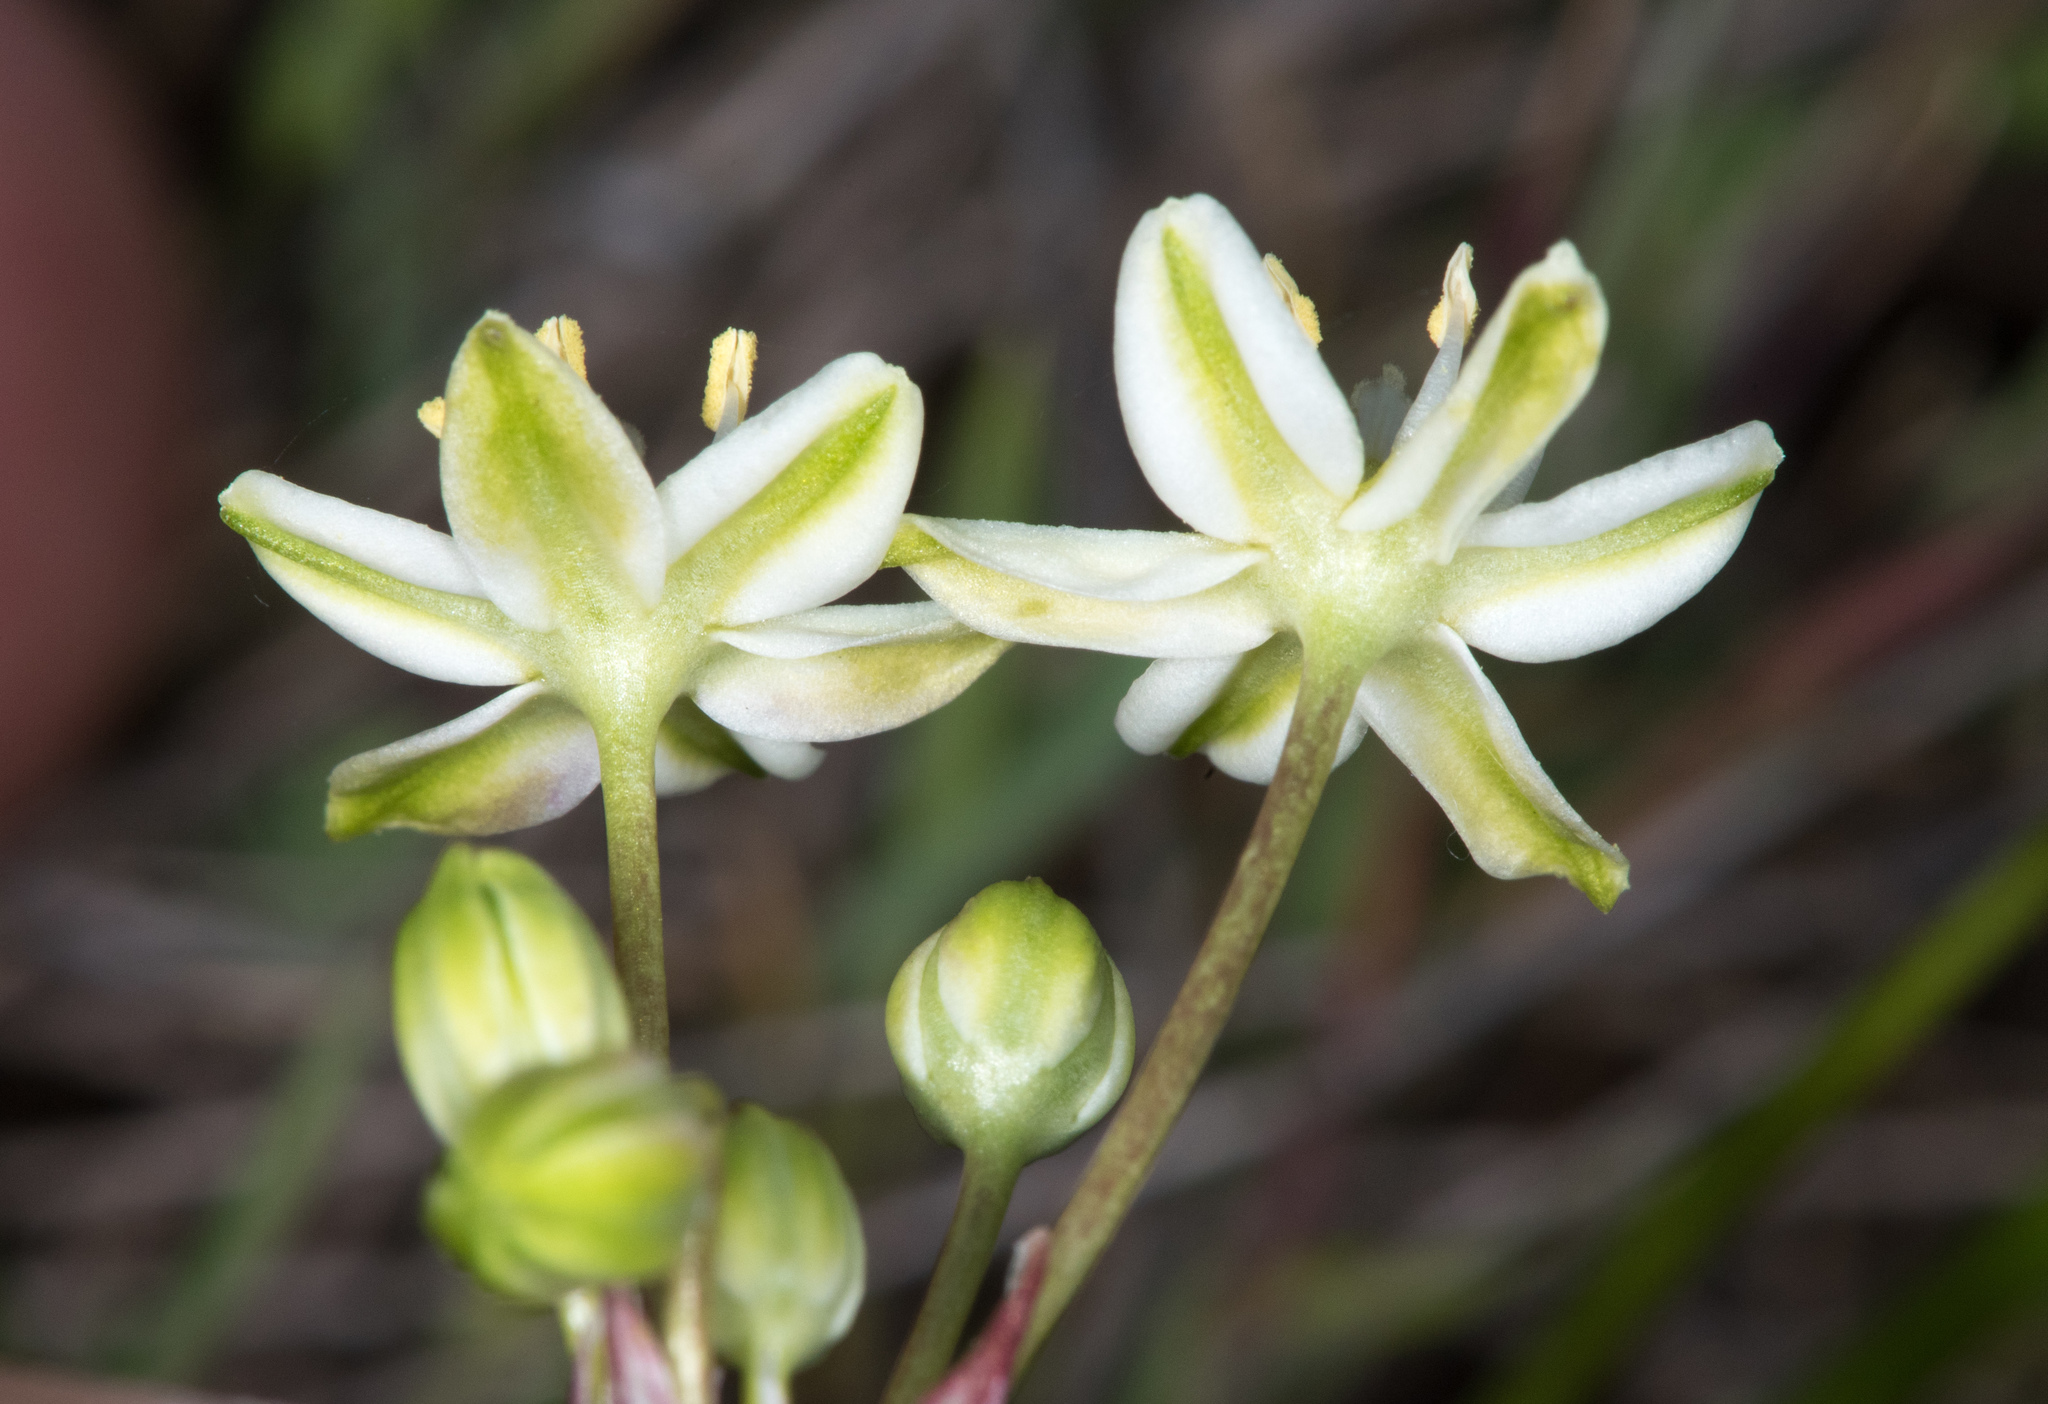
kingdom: Plantae
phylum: Tracheophyta
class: Liliopsida
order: Asparagales
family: Asparagaceae
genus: Muilla
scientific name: Muilla maritima
